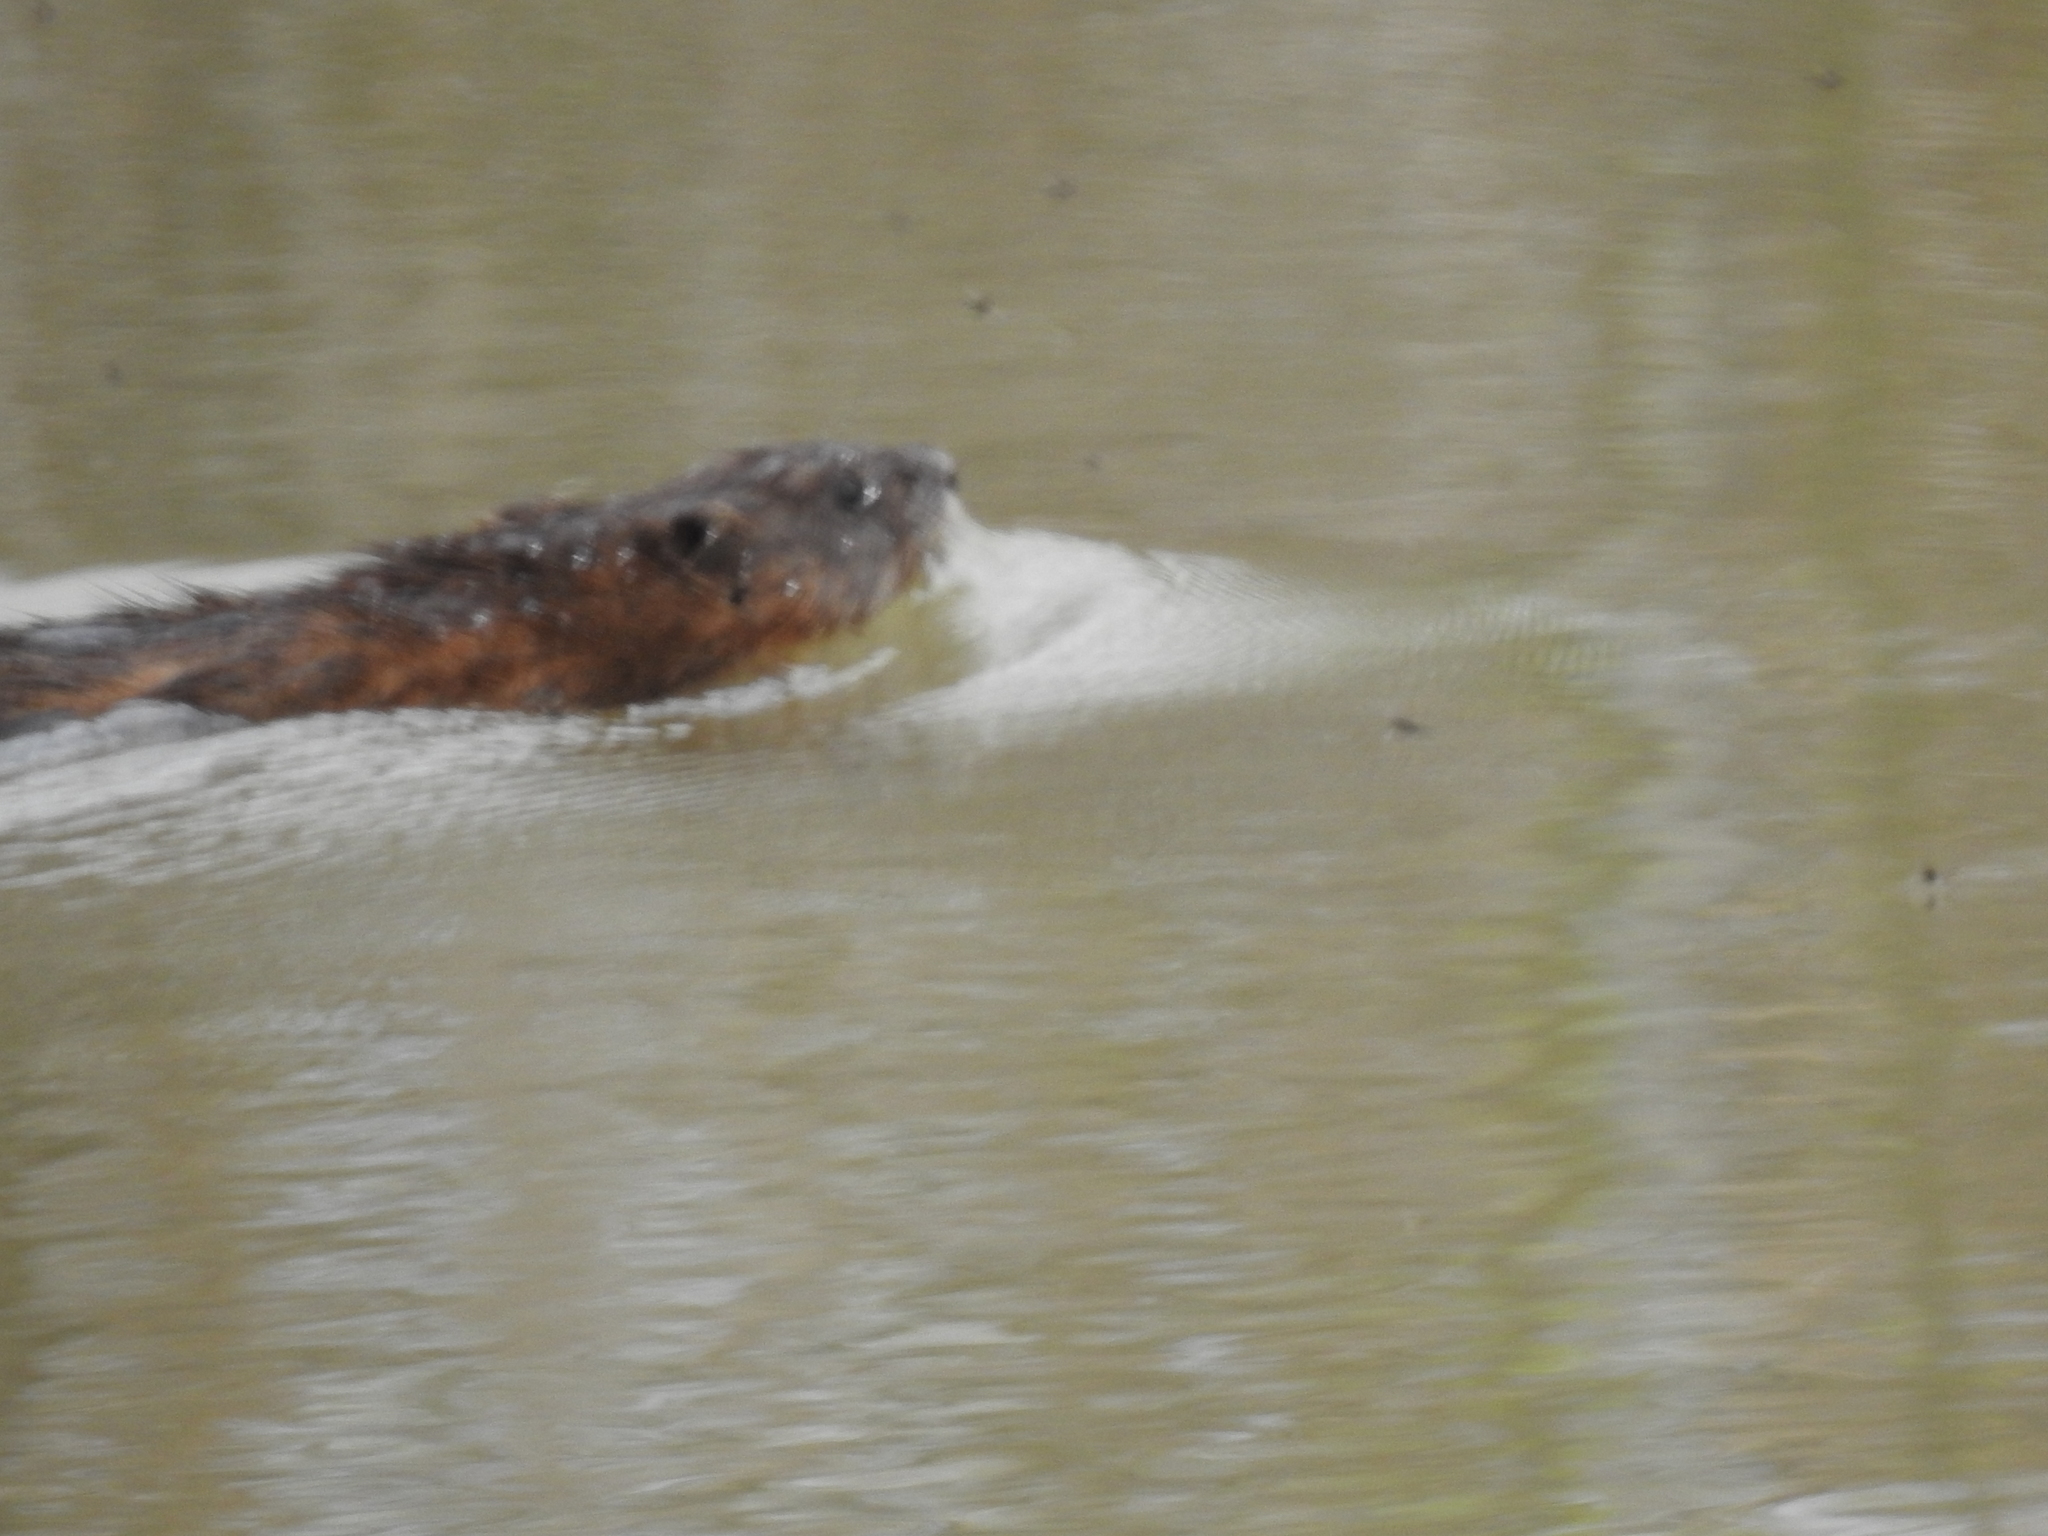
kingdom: Animalia
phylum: Chordata
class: Mammalia
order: Rodentia
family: Cricetidae
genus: Ondatra
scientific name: Ondatra zibethicus
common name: Muskrat
